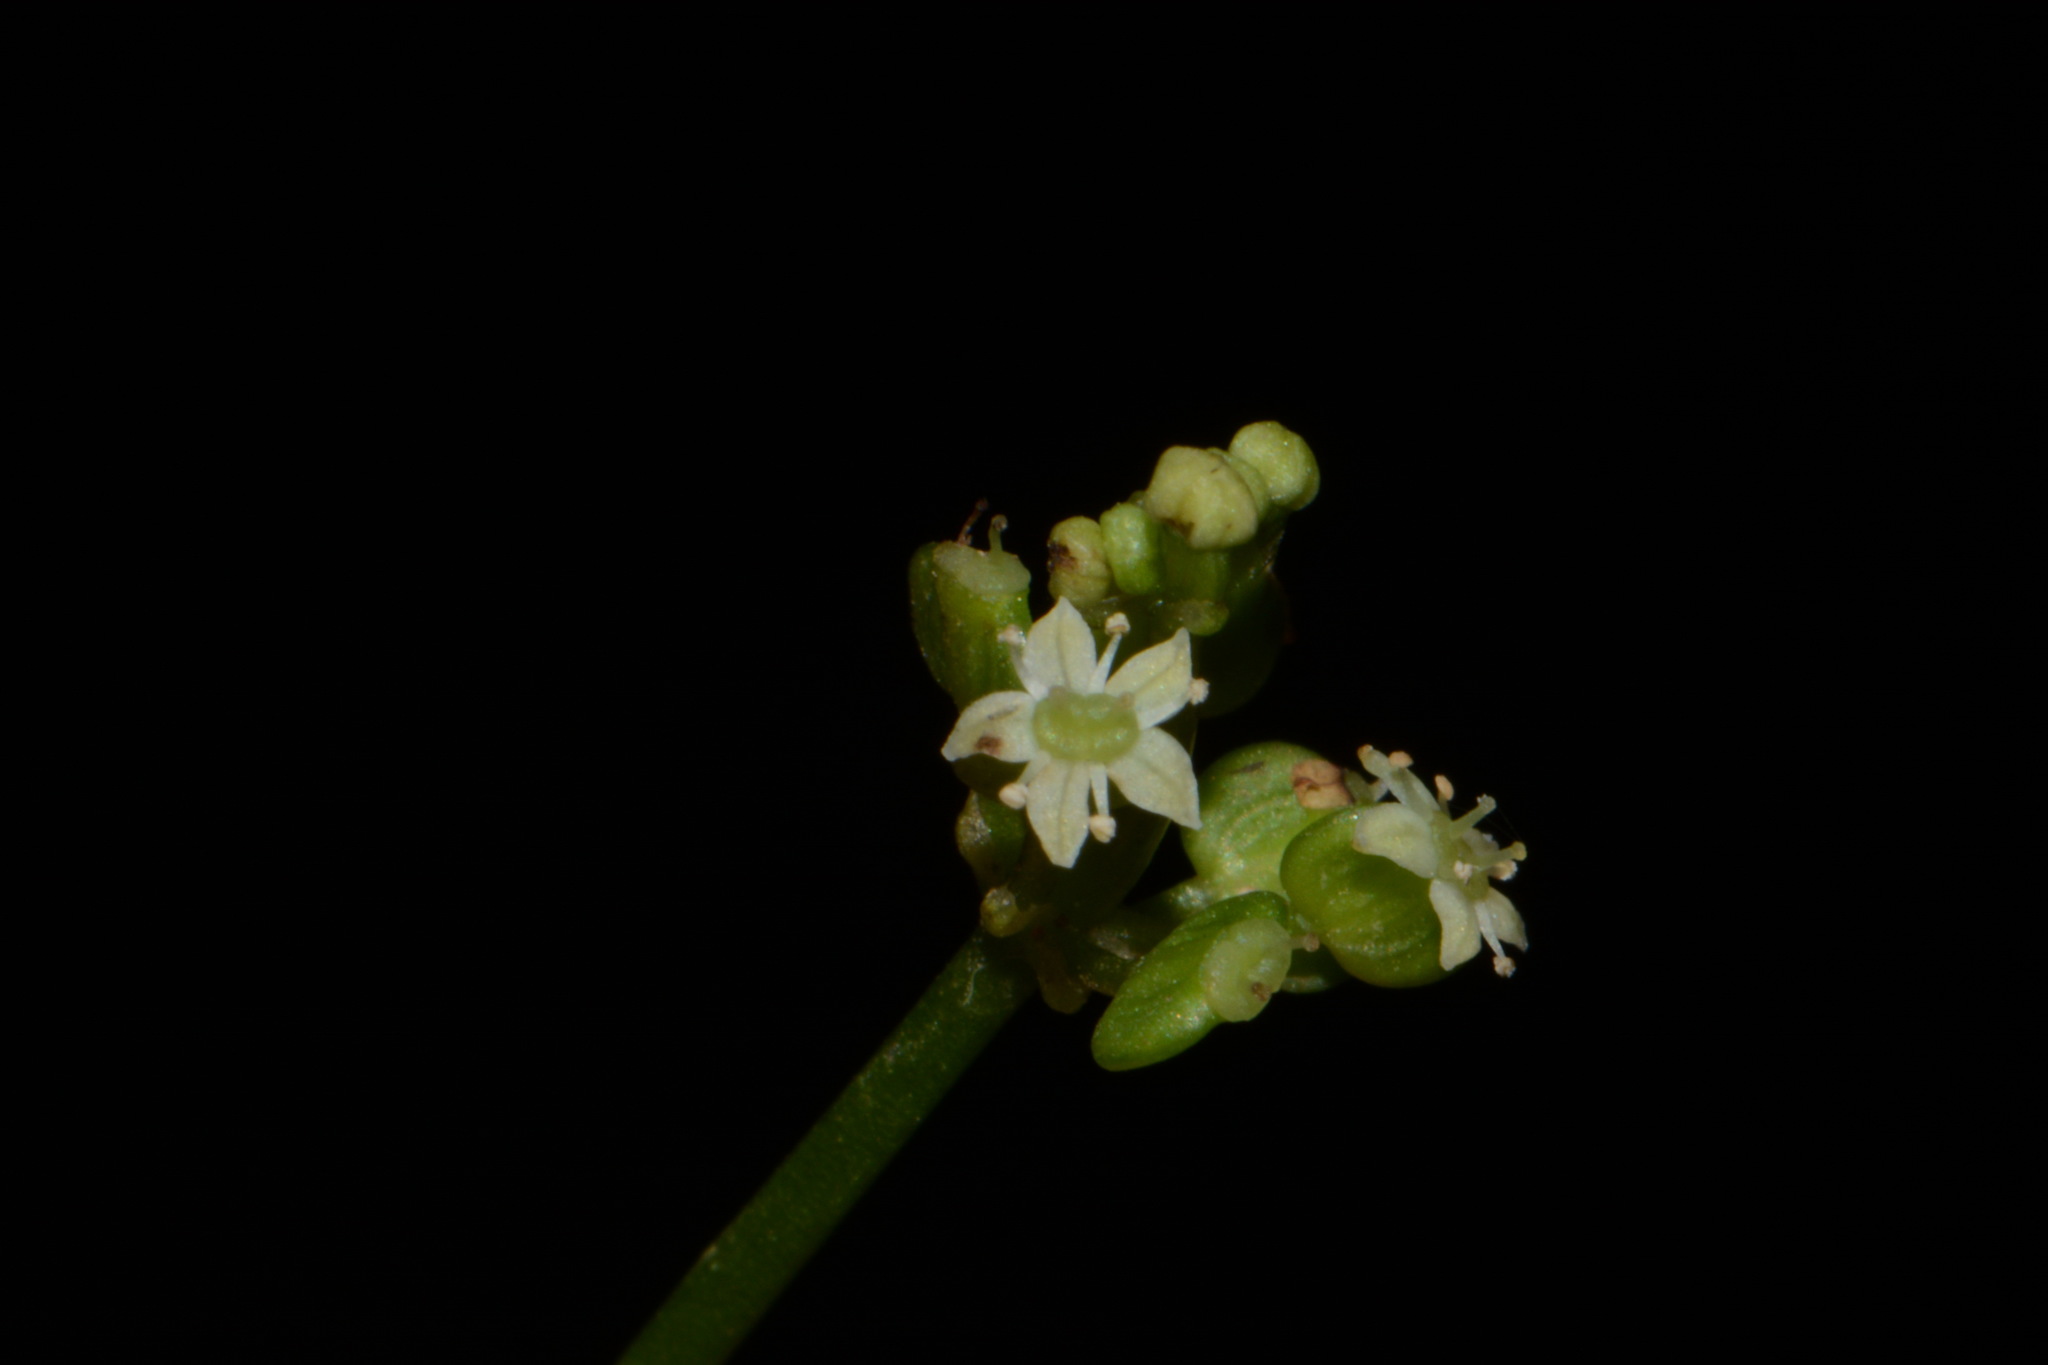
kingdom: Plantae
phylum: Tracheophyta
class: Magnoliopsida
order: Apiales
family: Araliaceae
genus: Hydrocotyle
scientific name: Hydrocotyle bonariensis
